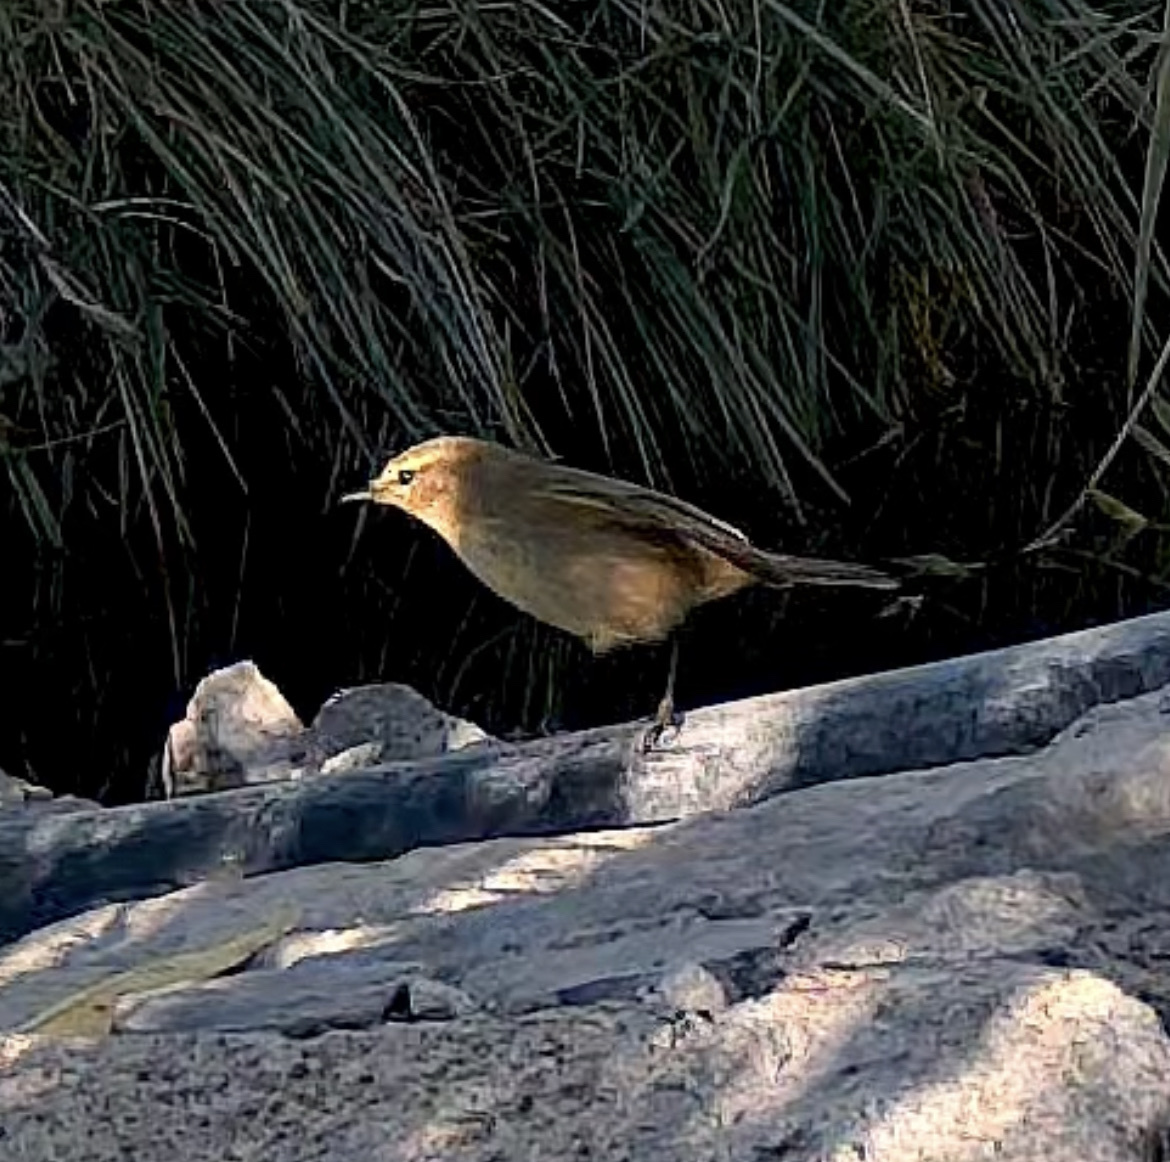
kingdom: Animalia
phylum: Chordata
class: Aves
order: Passeriformes
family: Phylloscopidae
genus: Phylloscopus
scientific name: Phylloscopus collybita
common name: Common chiffchaff
